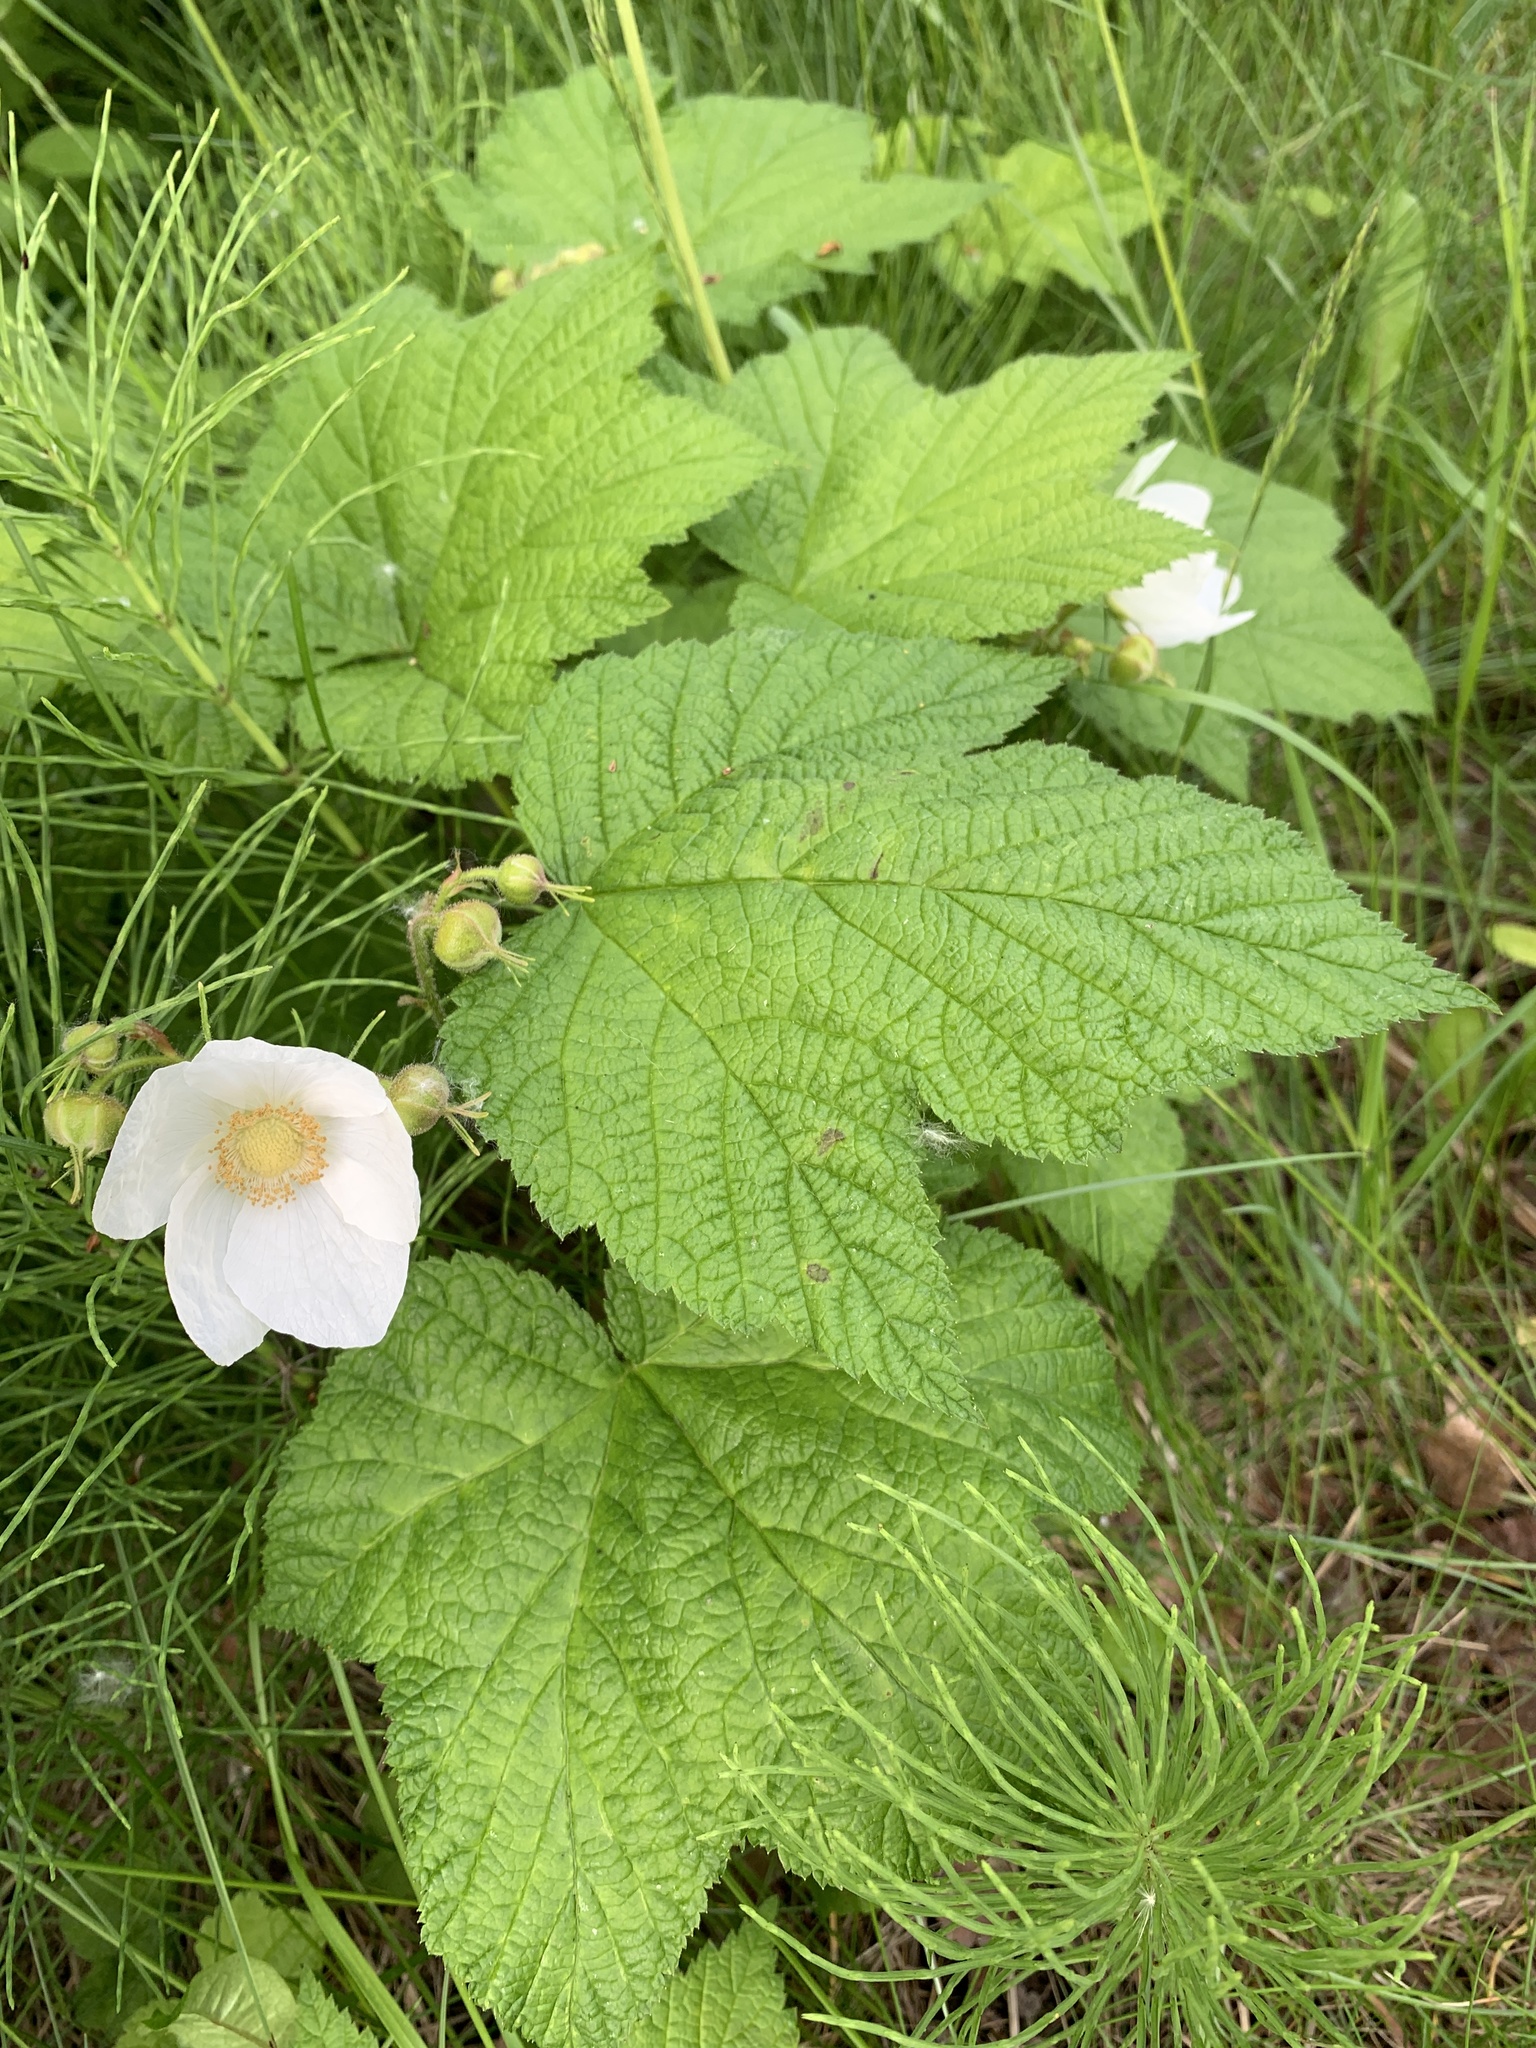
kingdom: Plantae
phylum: Tracheophyta
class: Magnoliopsida
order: Rosales
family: Rosaceae
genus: Rubus
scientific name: Rubus parviflorus
